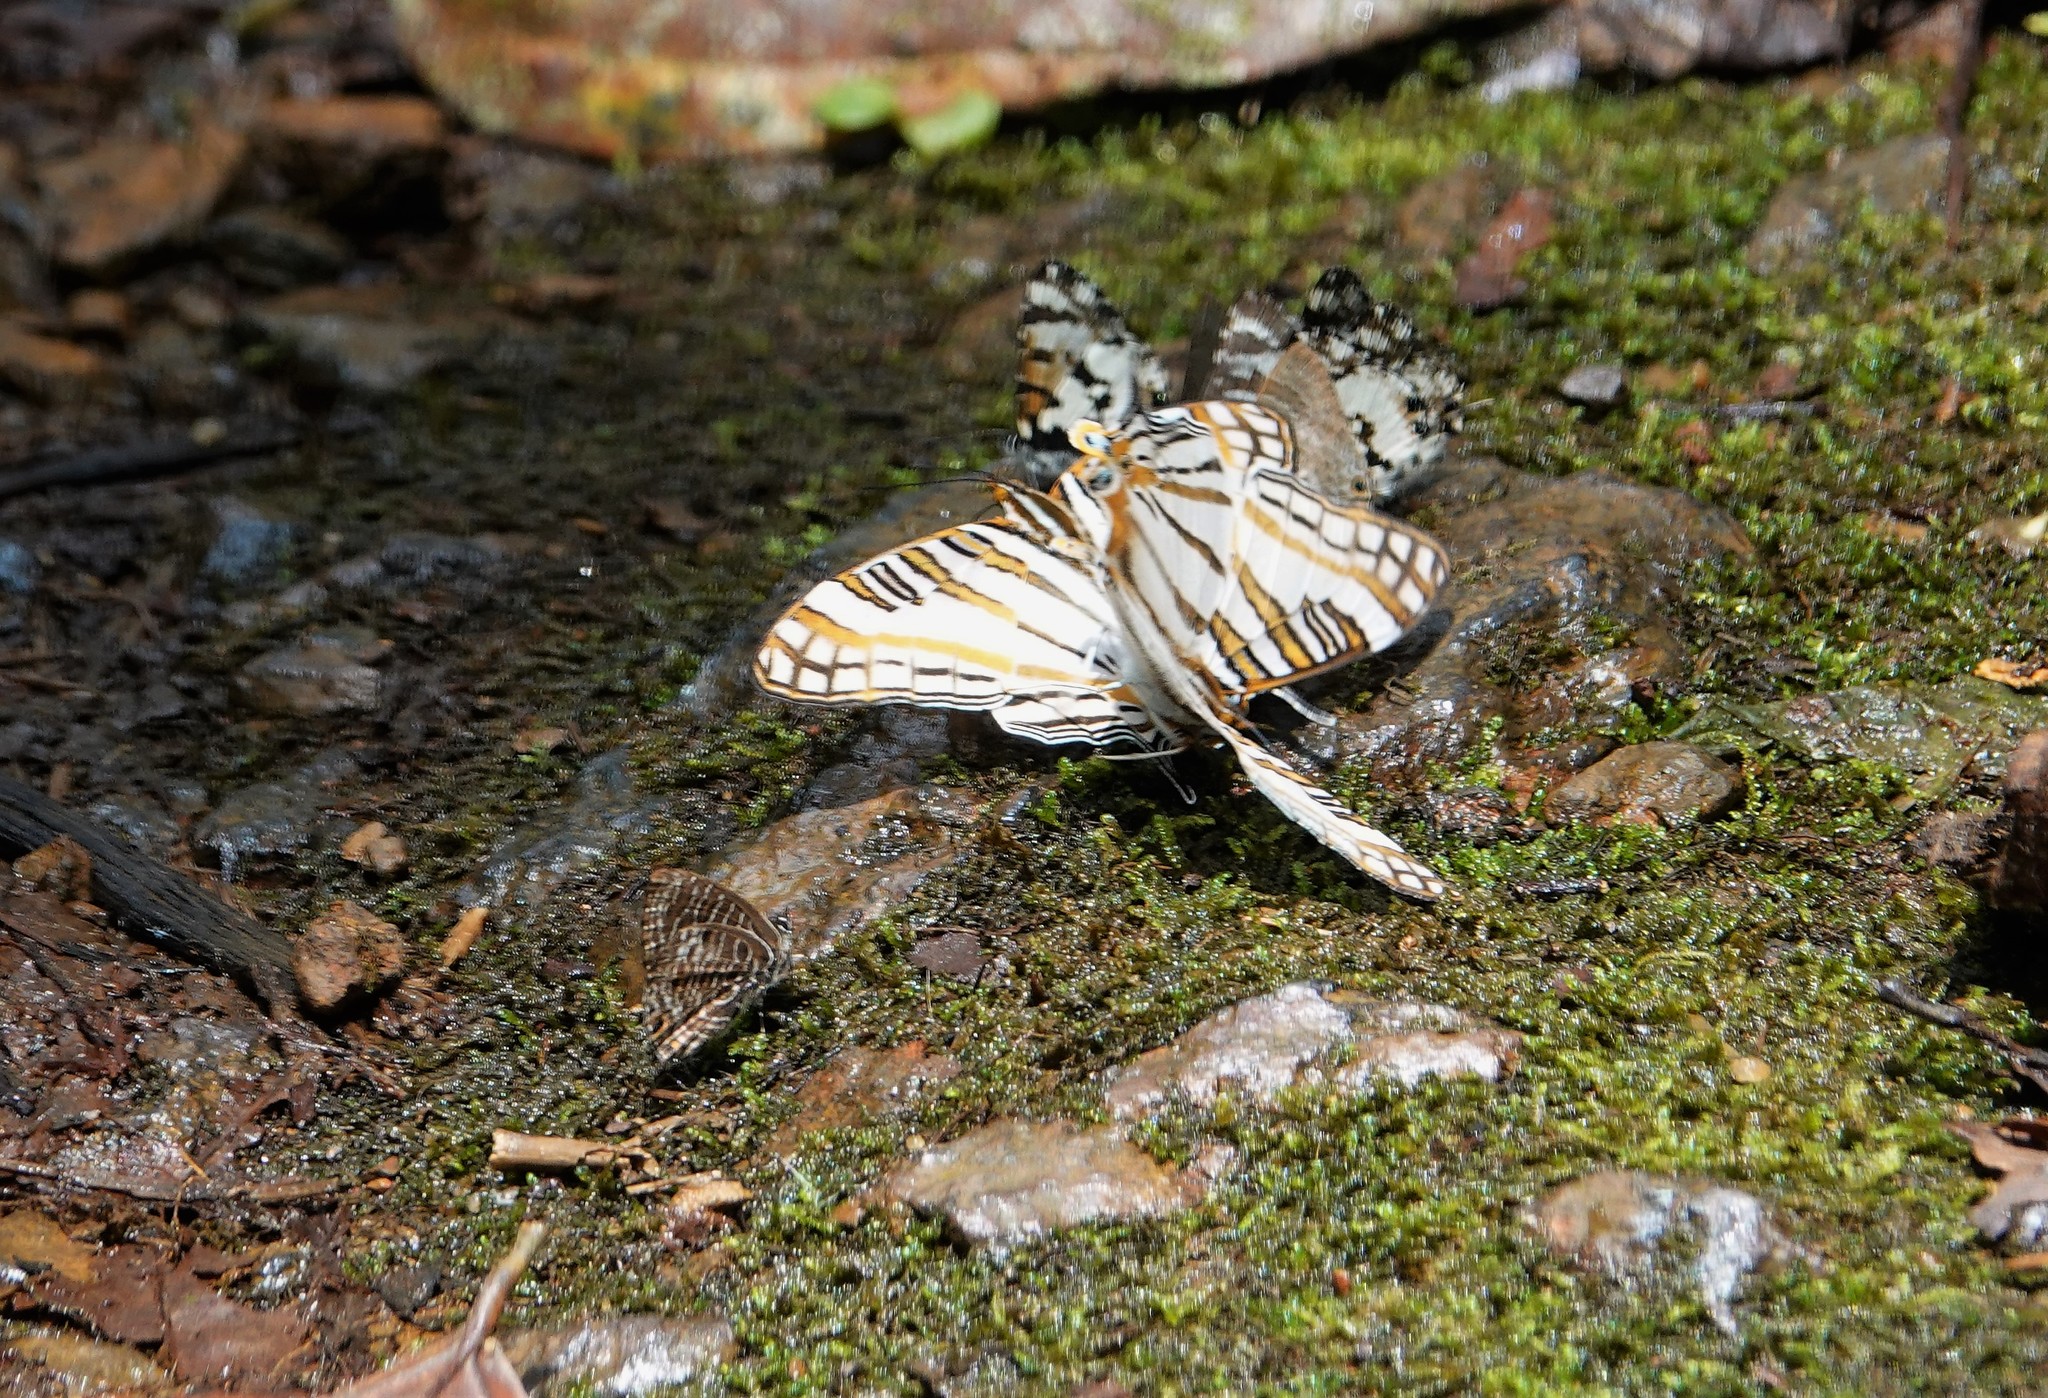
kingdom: Animalia
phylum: Arthropoda
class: Insecta
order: Lepidoptera
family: Nymphalidae
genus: Marpesia
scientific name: Marpesia camillus
